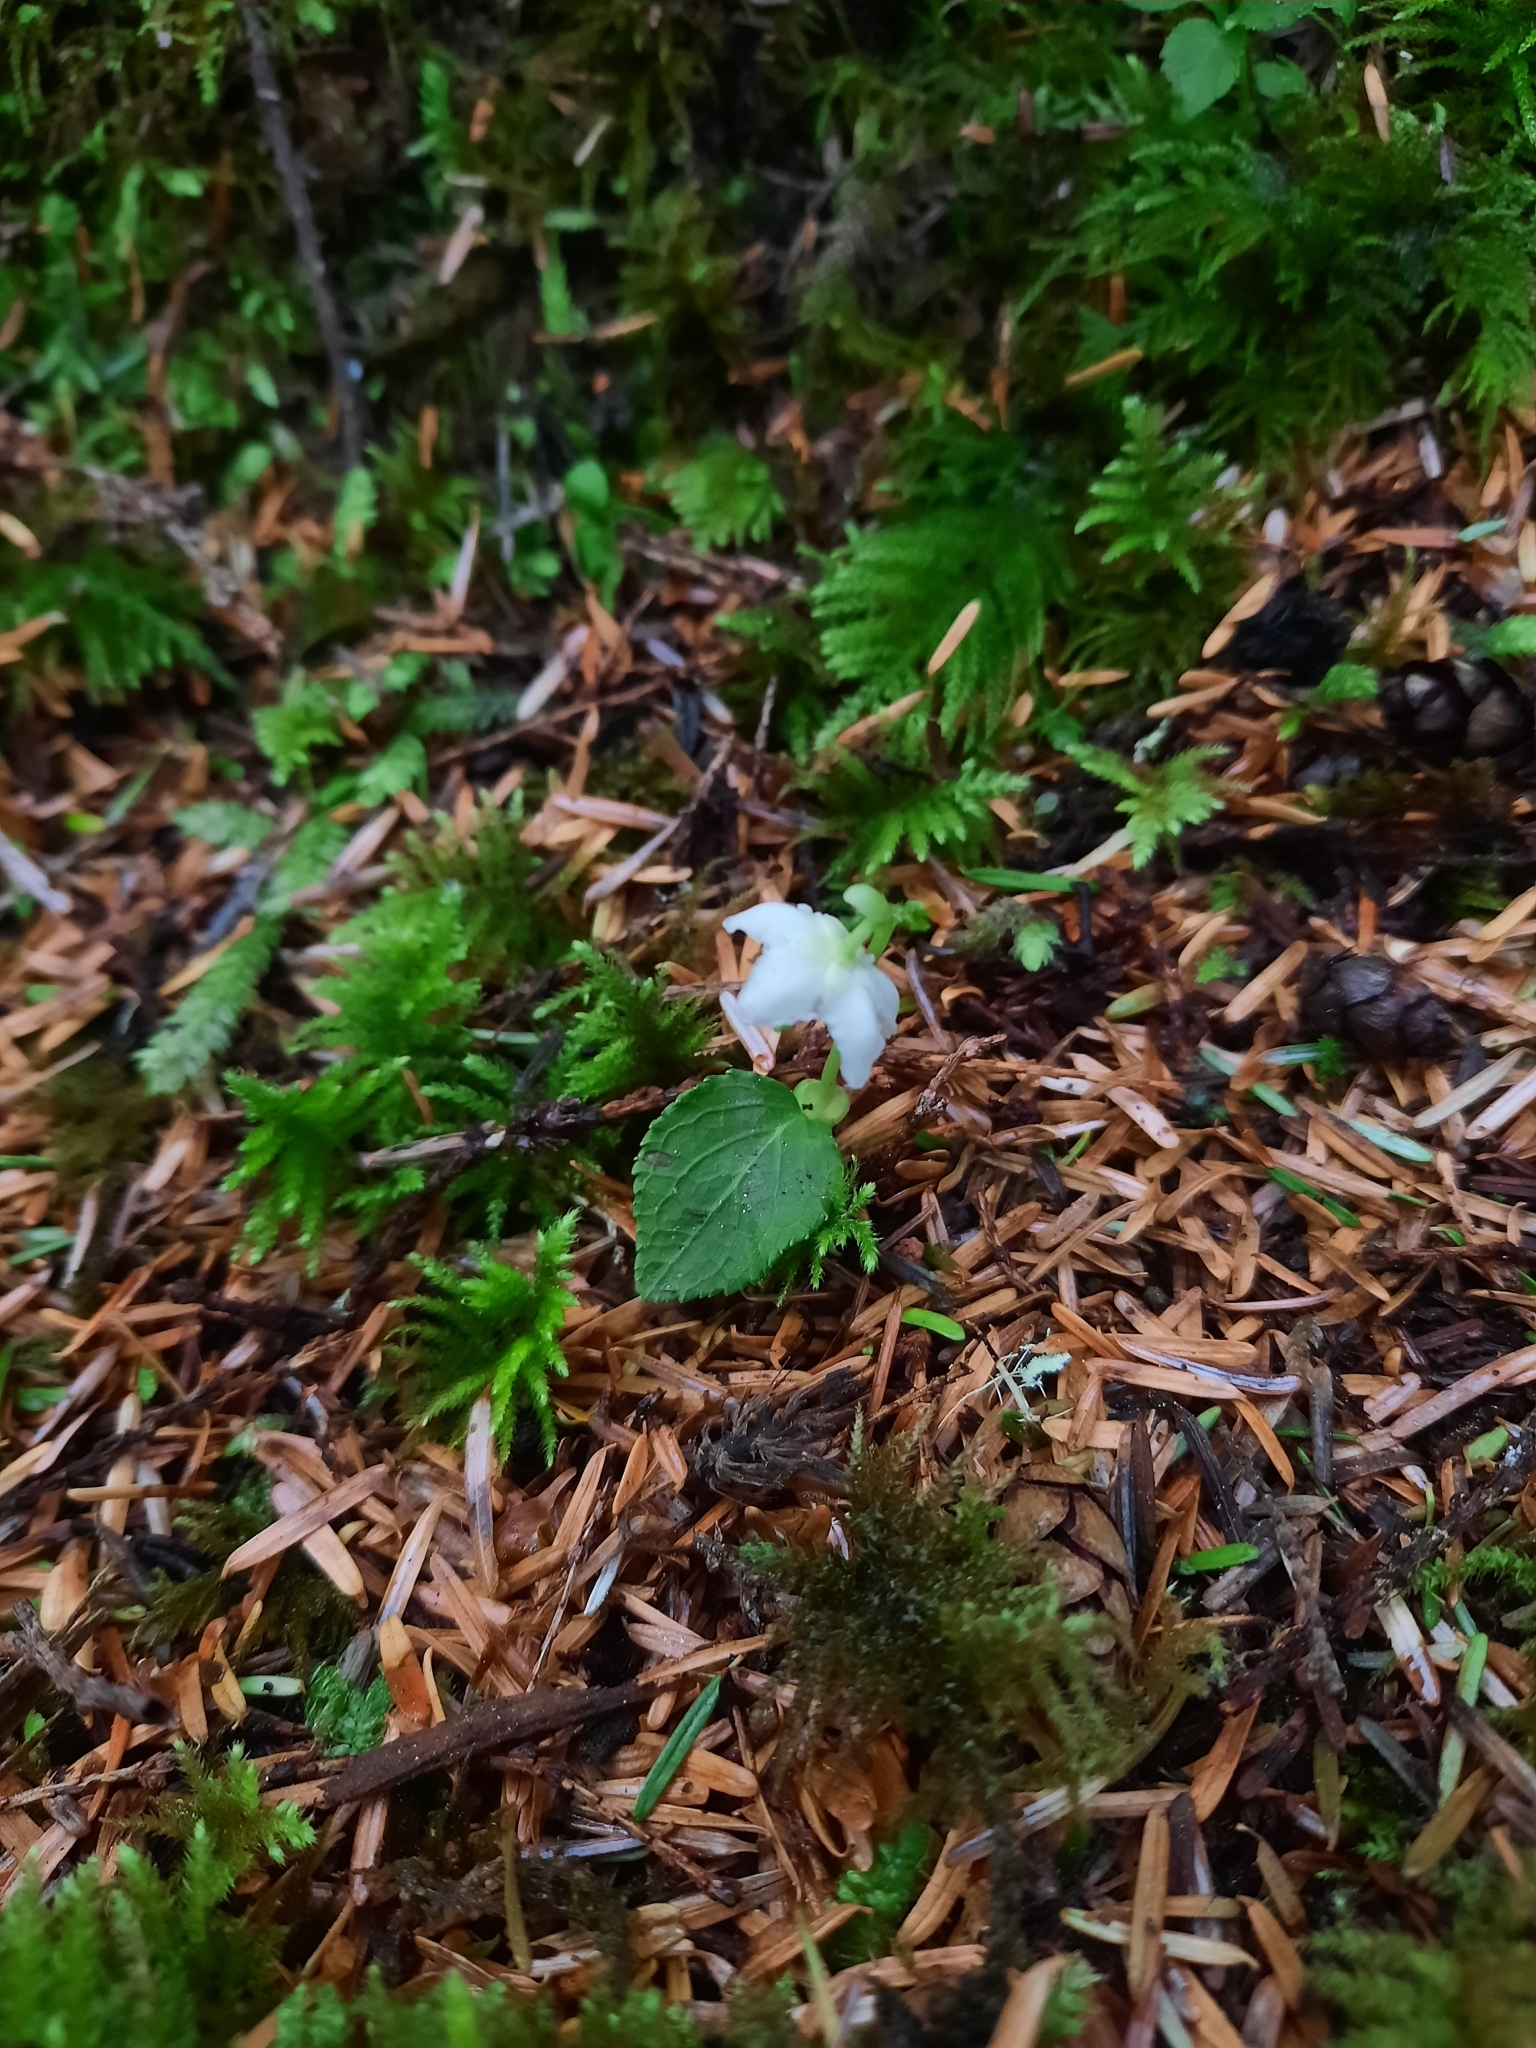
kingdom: Plantae
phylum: Tracheophyta
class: Magnoliopsida
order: Ericales
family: Ericaceae
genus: Moneses
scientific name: Moneses uniflora
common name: One-flowered wintergreen
